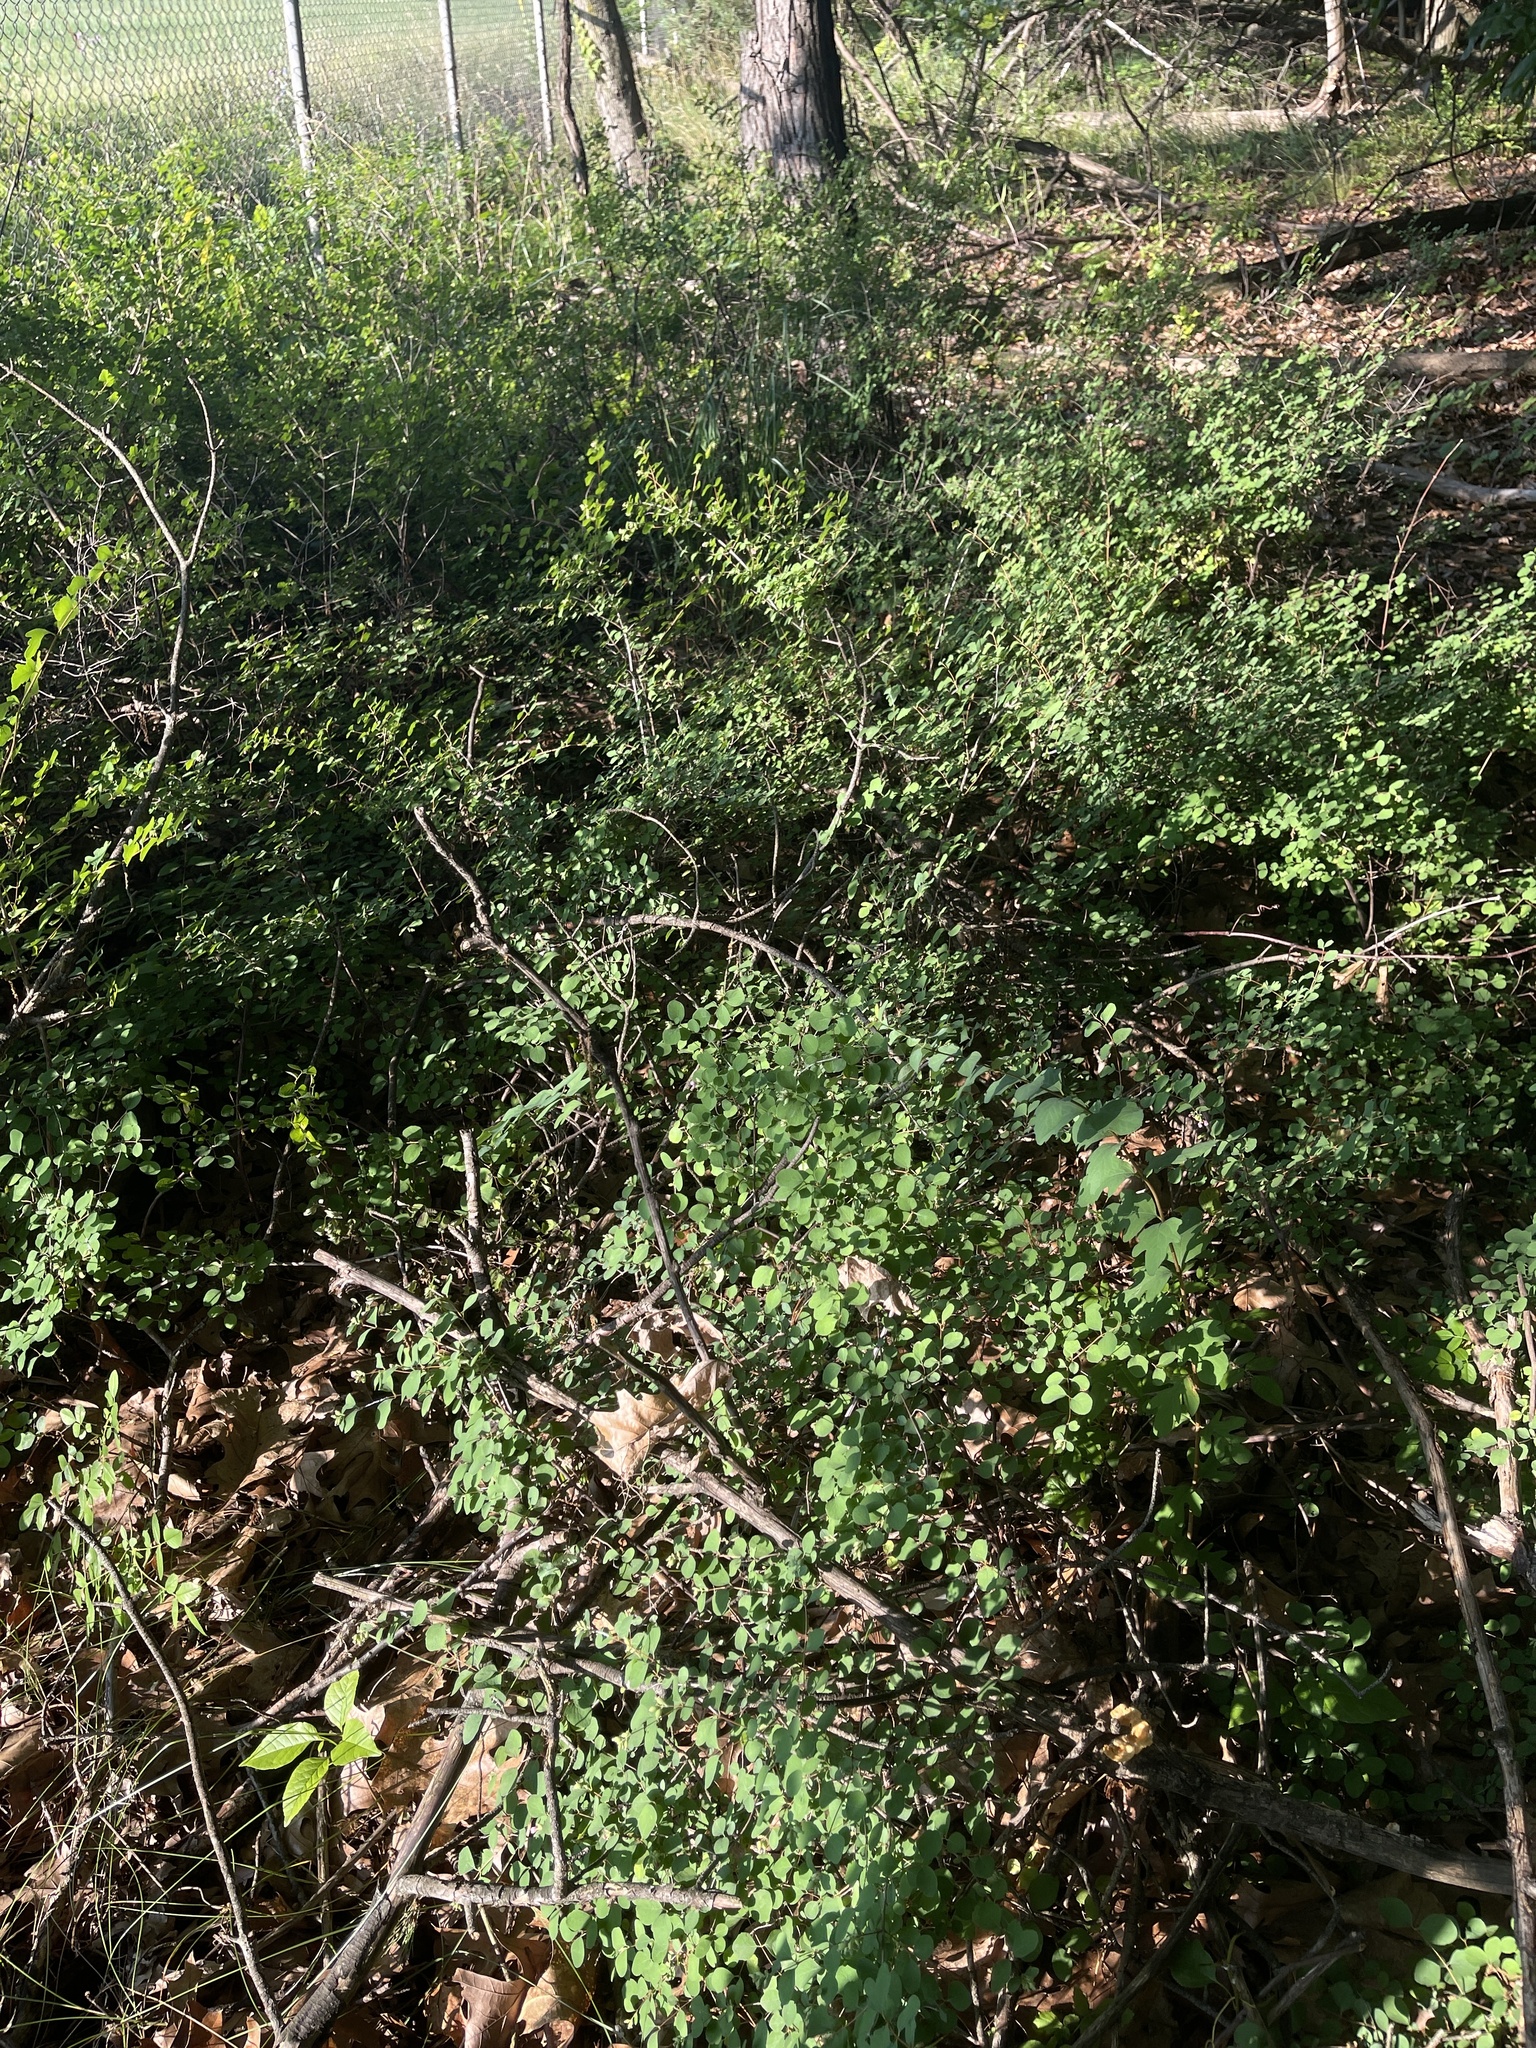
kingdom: Plantae
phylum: Tracheophyta
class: Magnoliopsida
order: Dipsacales
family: Caprifoliaceae
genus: Symphoricarpos
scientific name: Symphoricarpos albus
